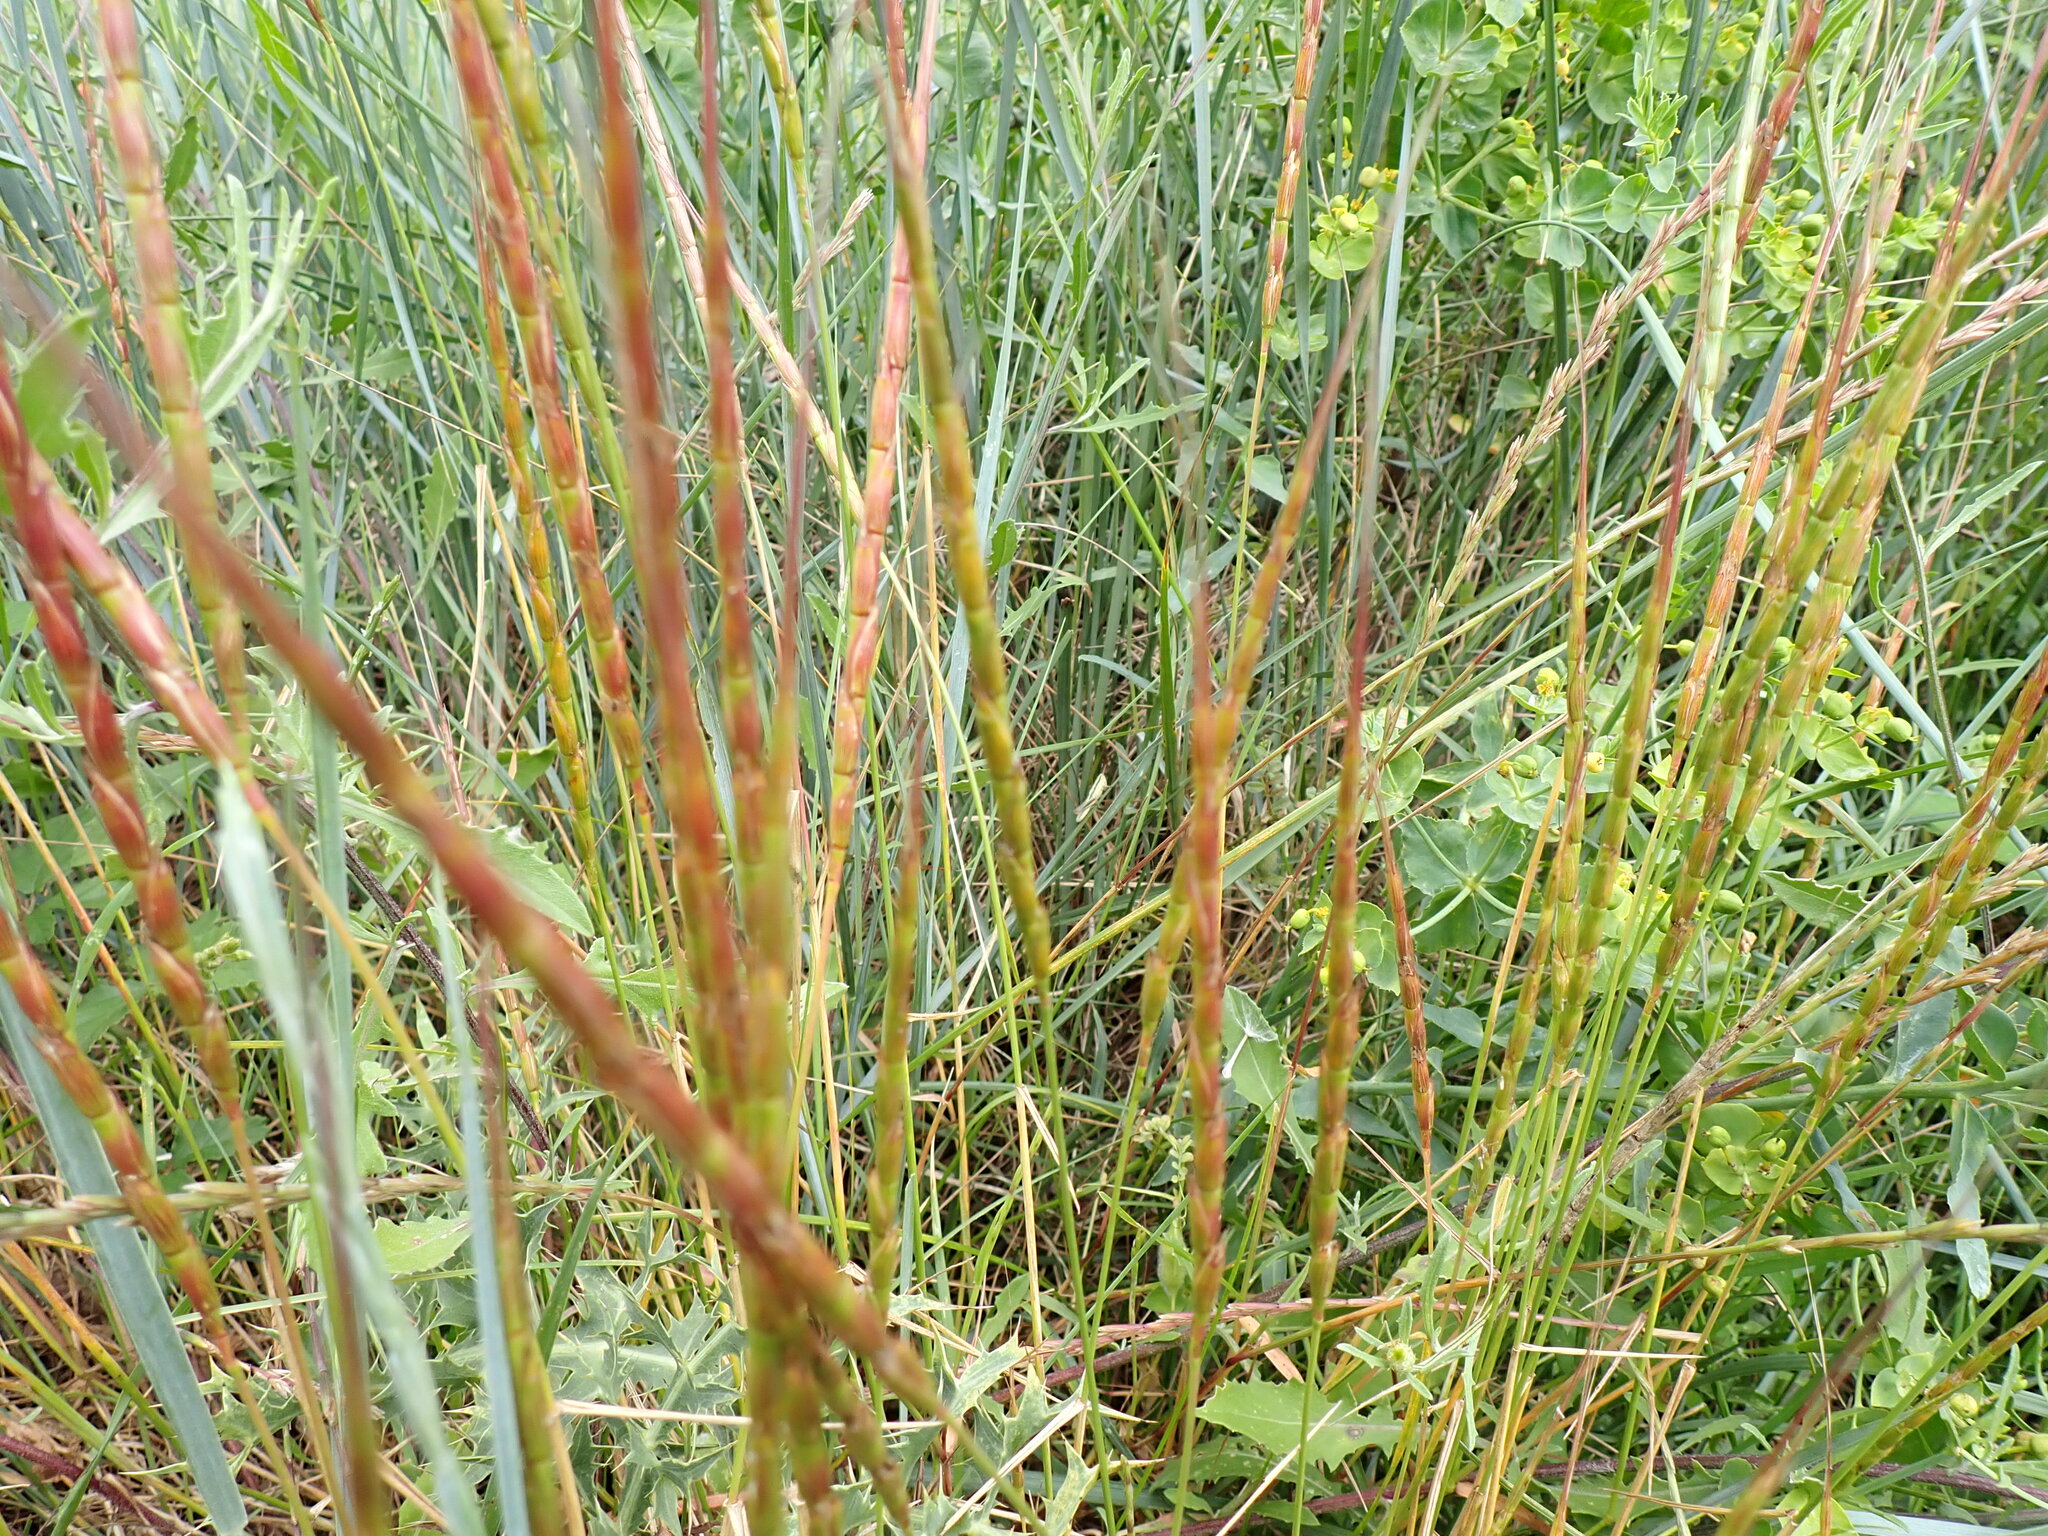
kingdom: Plantae
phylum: Tracheophyta
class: Liliopsida
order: Poales
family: Poaceae
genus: Aegilops
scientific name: Aegilops cylindrica
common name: Jointed goatgrass
